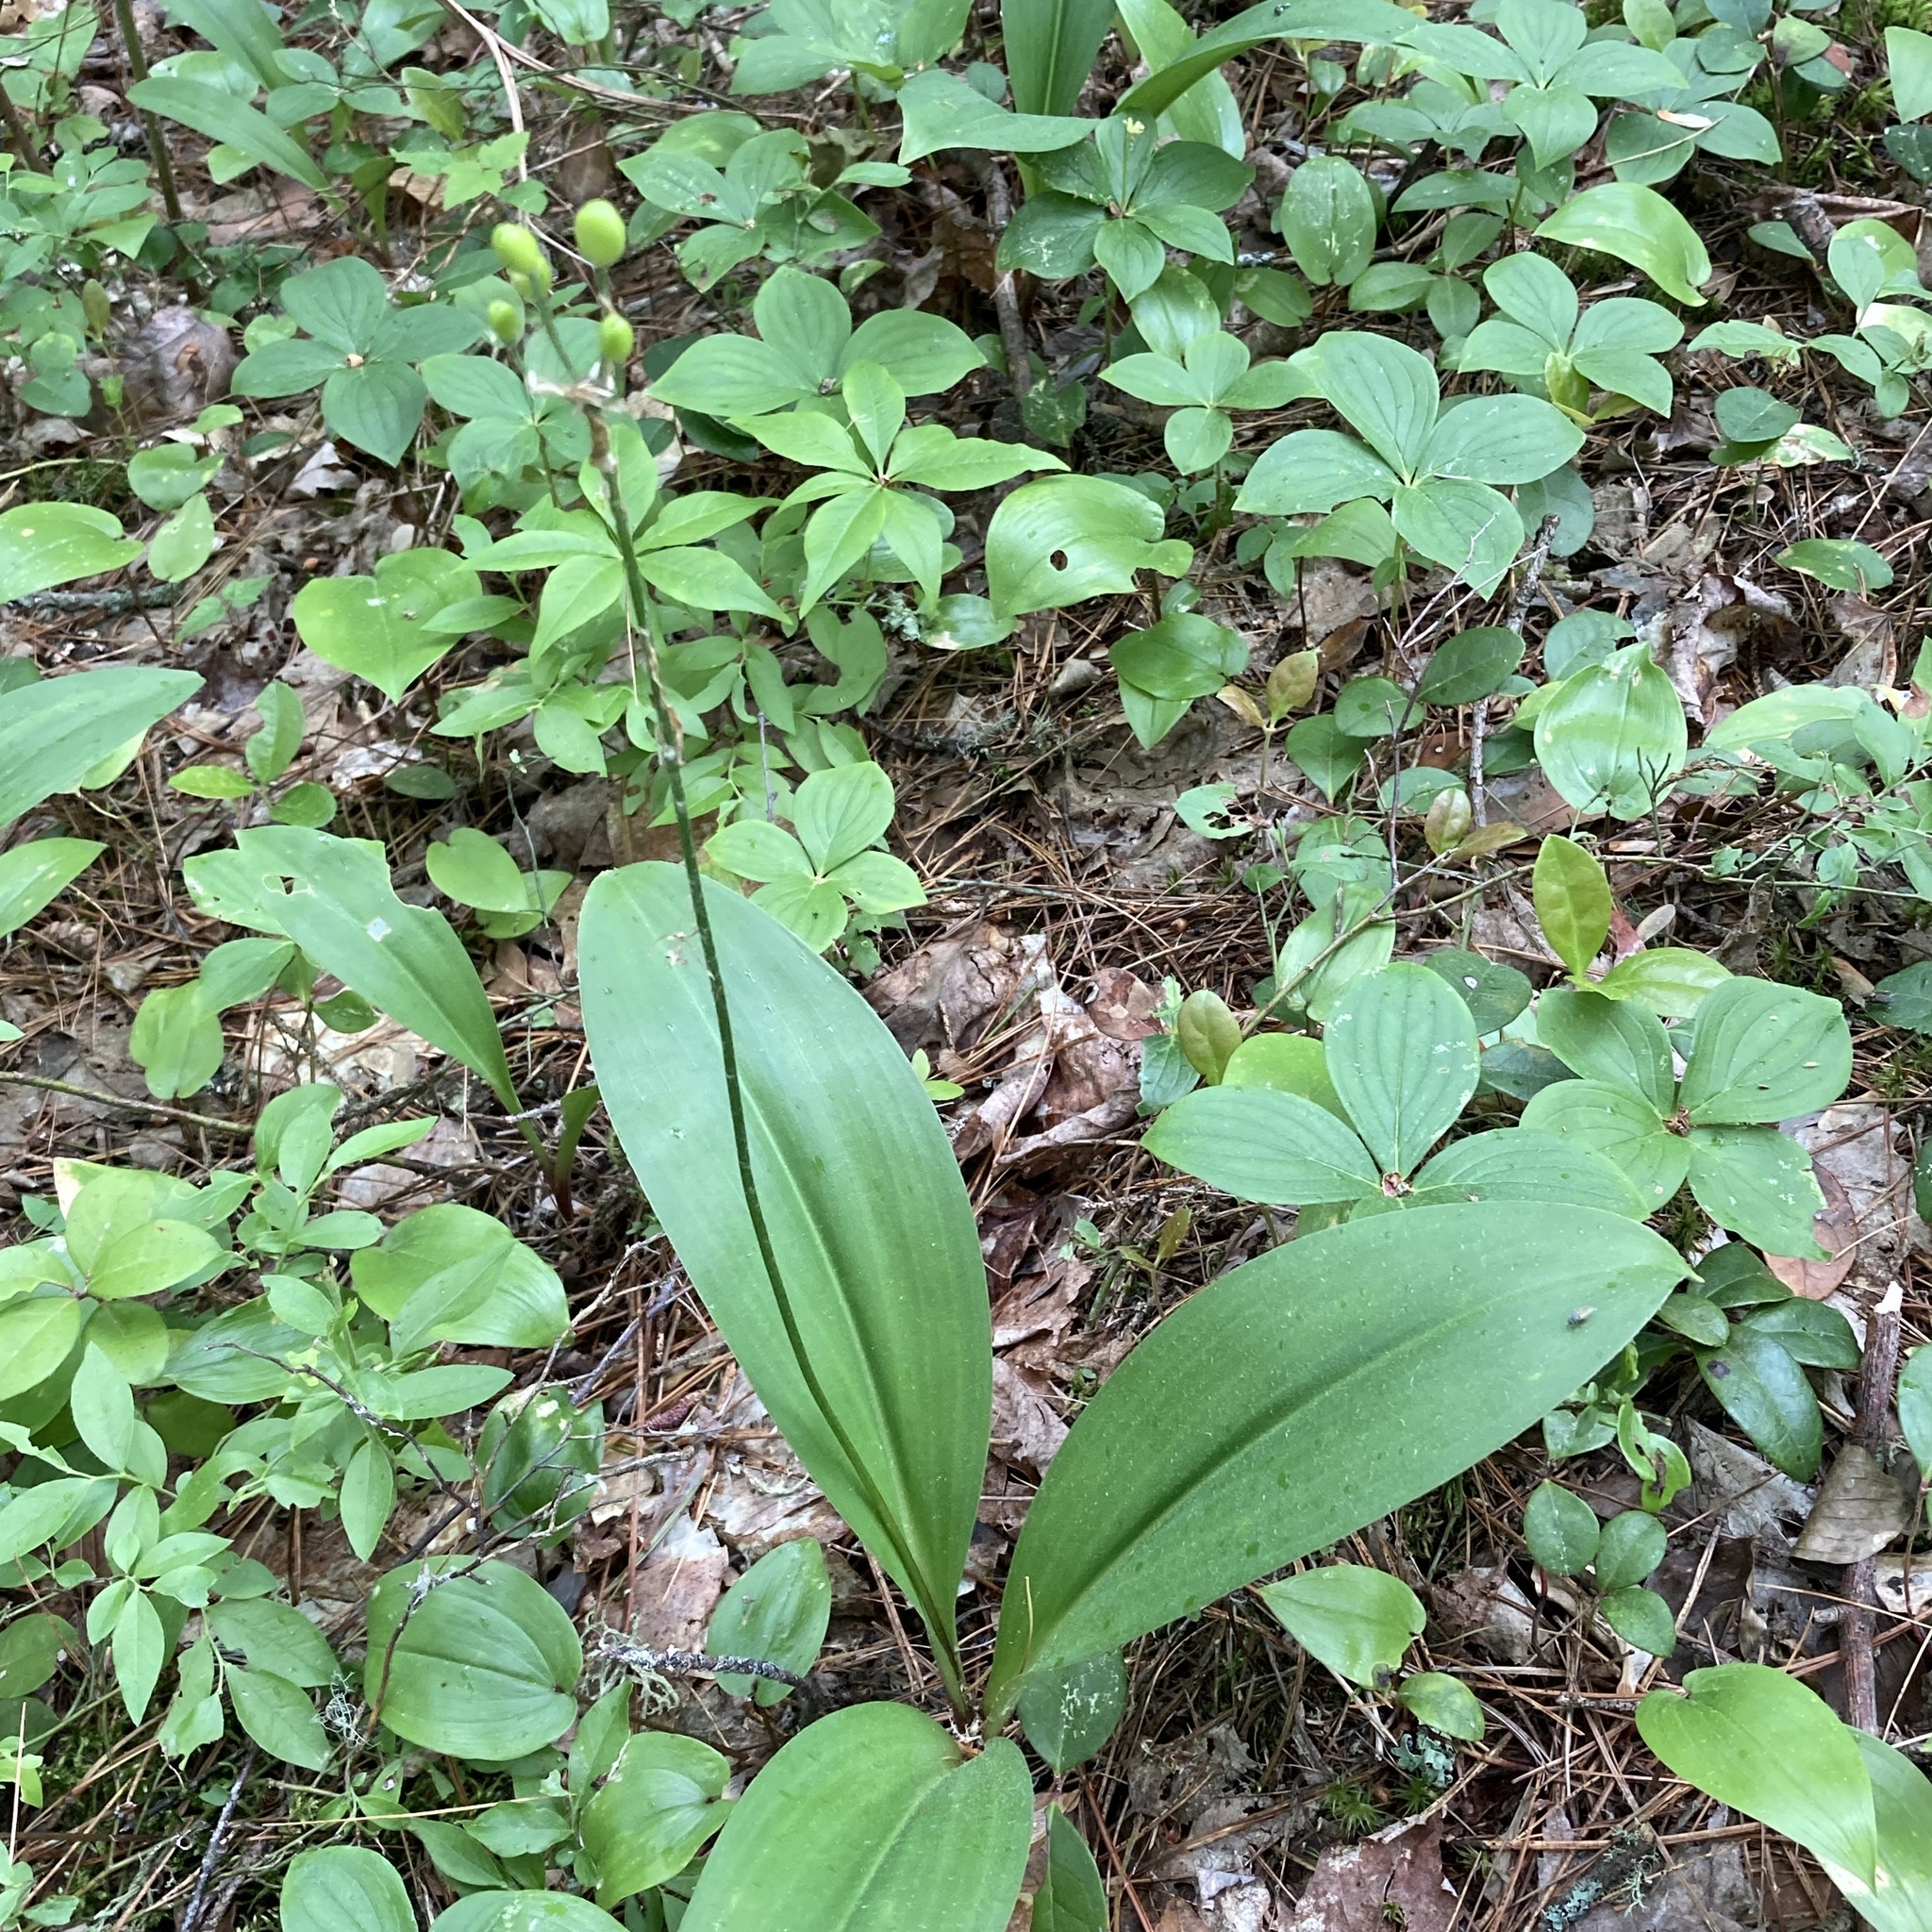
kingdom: Plantae
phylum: Tracheophyta
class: Liliopsida
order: Liliales
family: Liliaceae
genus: Clintonia
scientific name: Clintonia borealis
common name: Yellow clintonia
